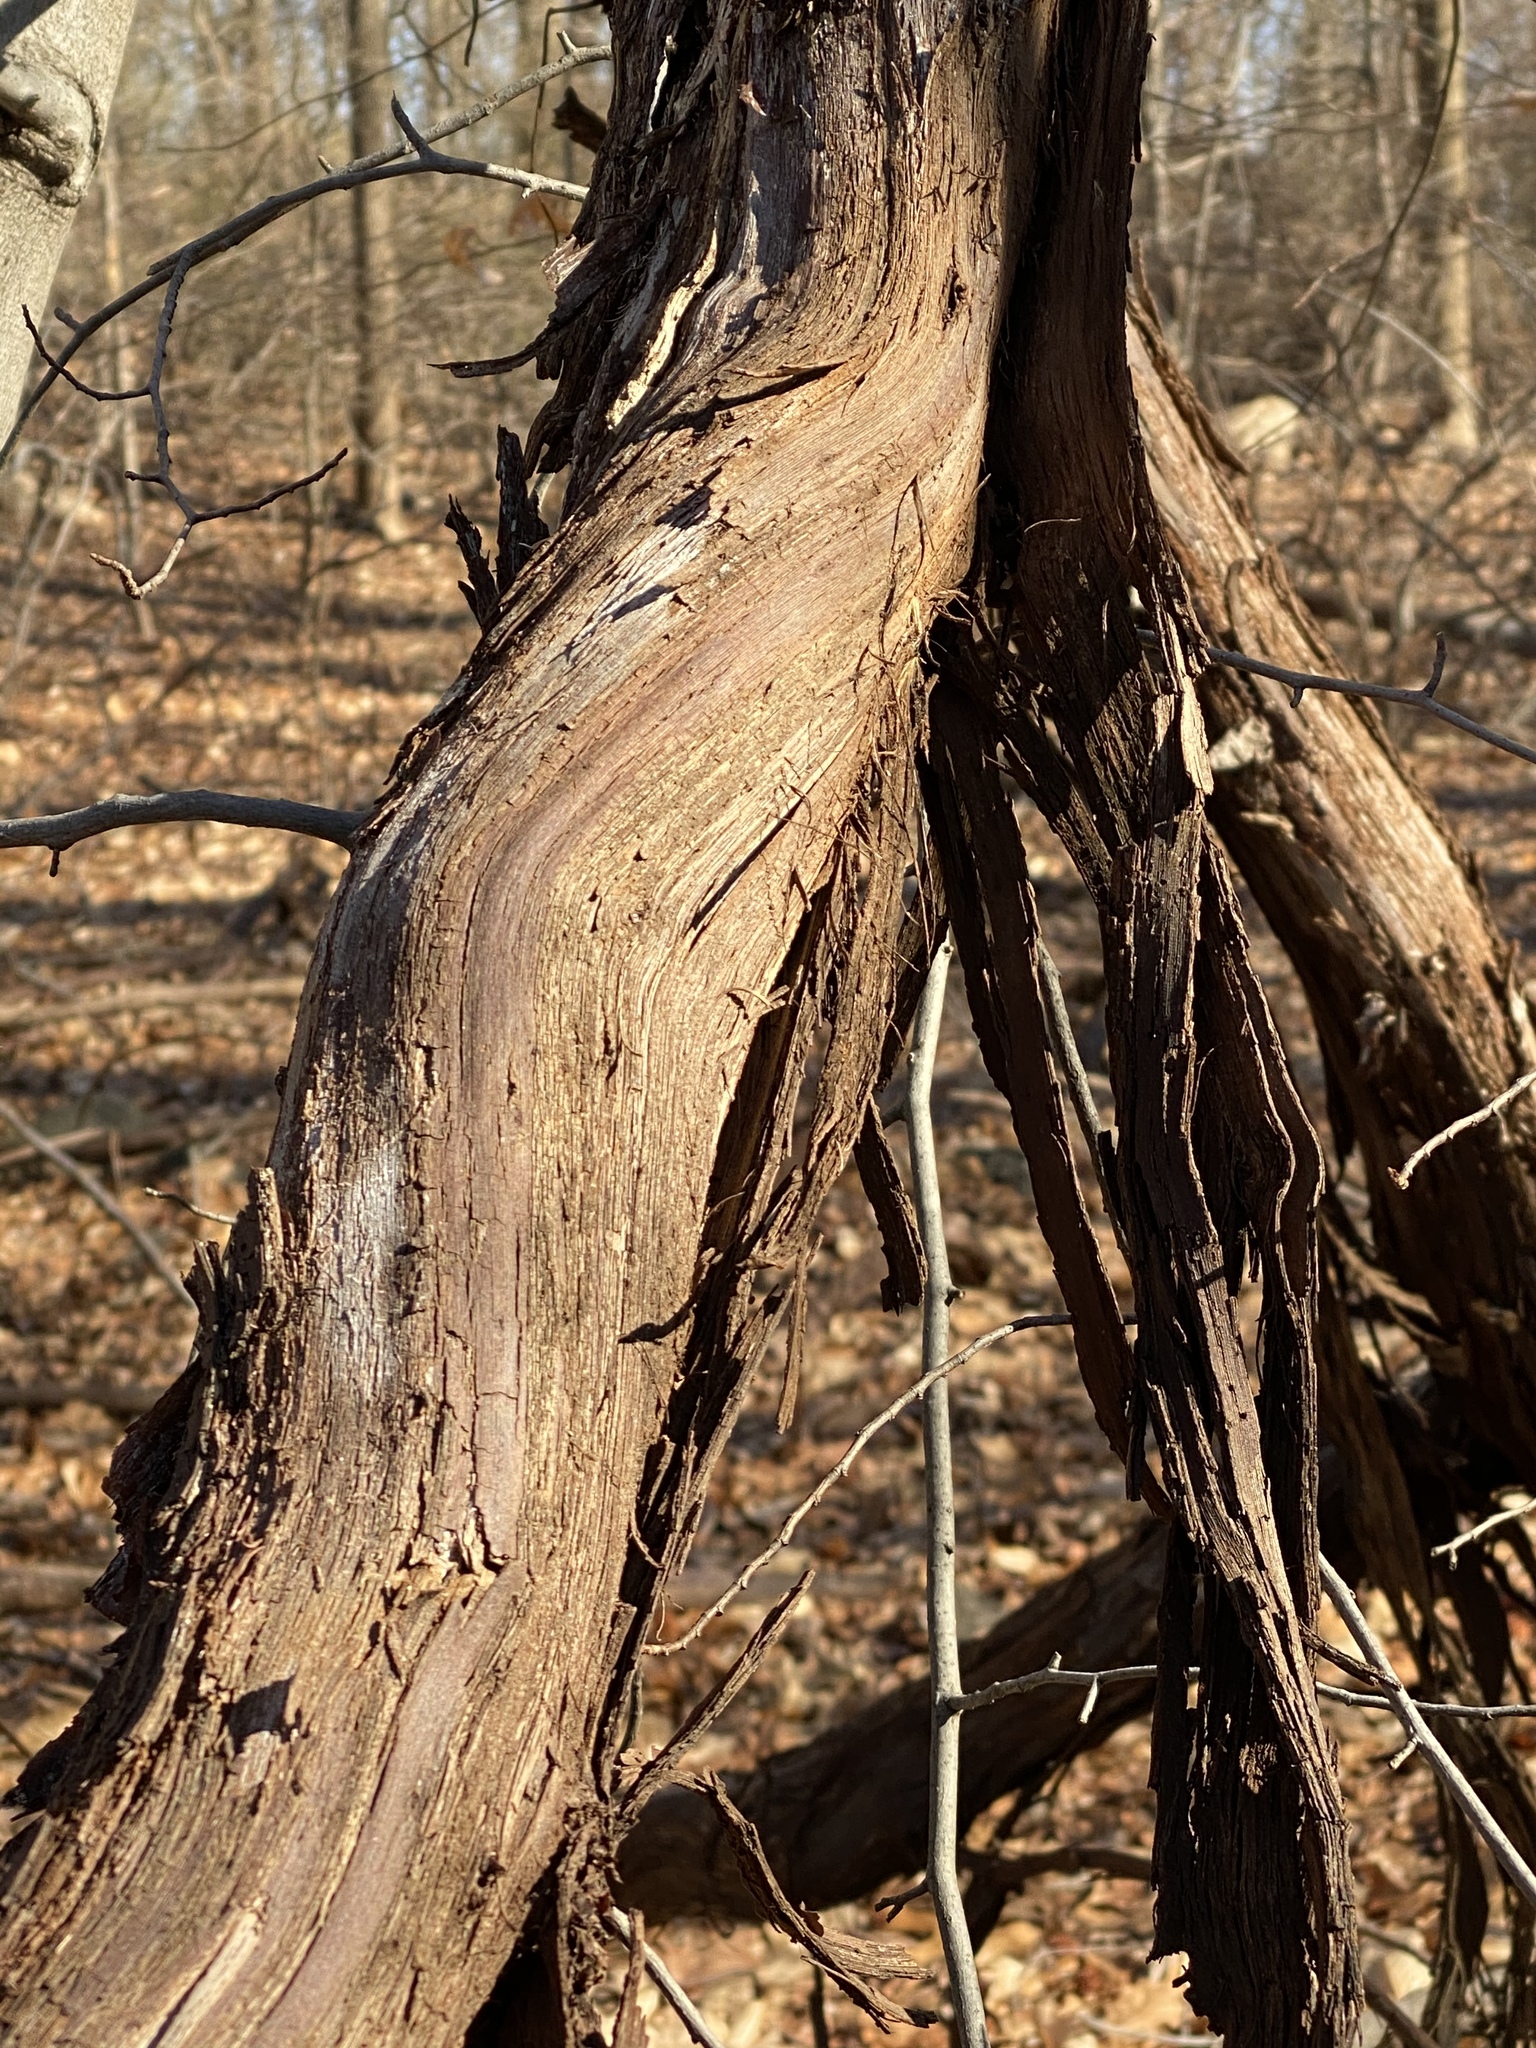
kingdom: Plantae
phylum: Tracheophyta
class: Magnoliopsida
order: Vitales
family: Vitaceae
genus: Vitis
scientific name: Vitis
